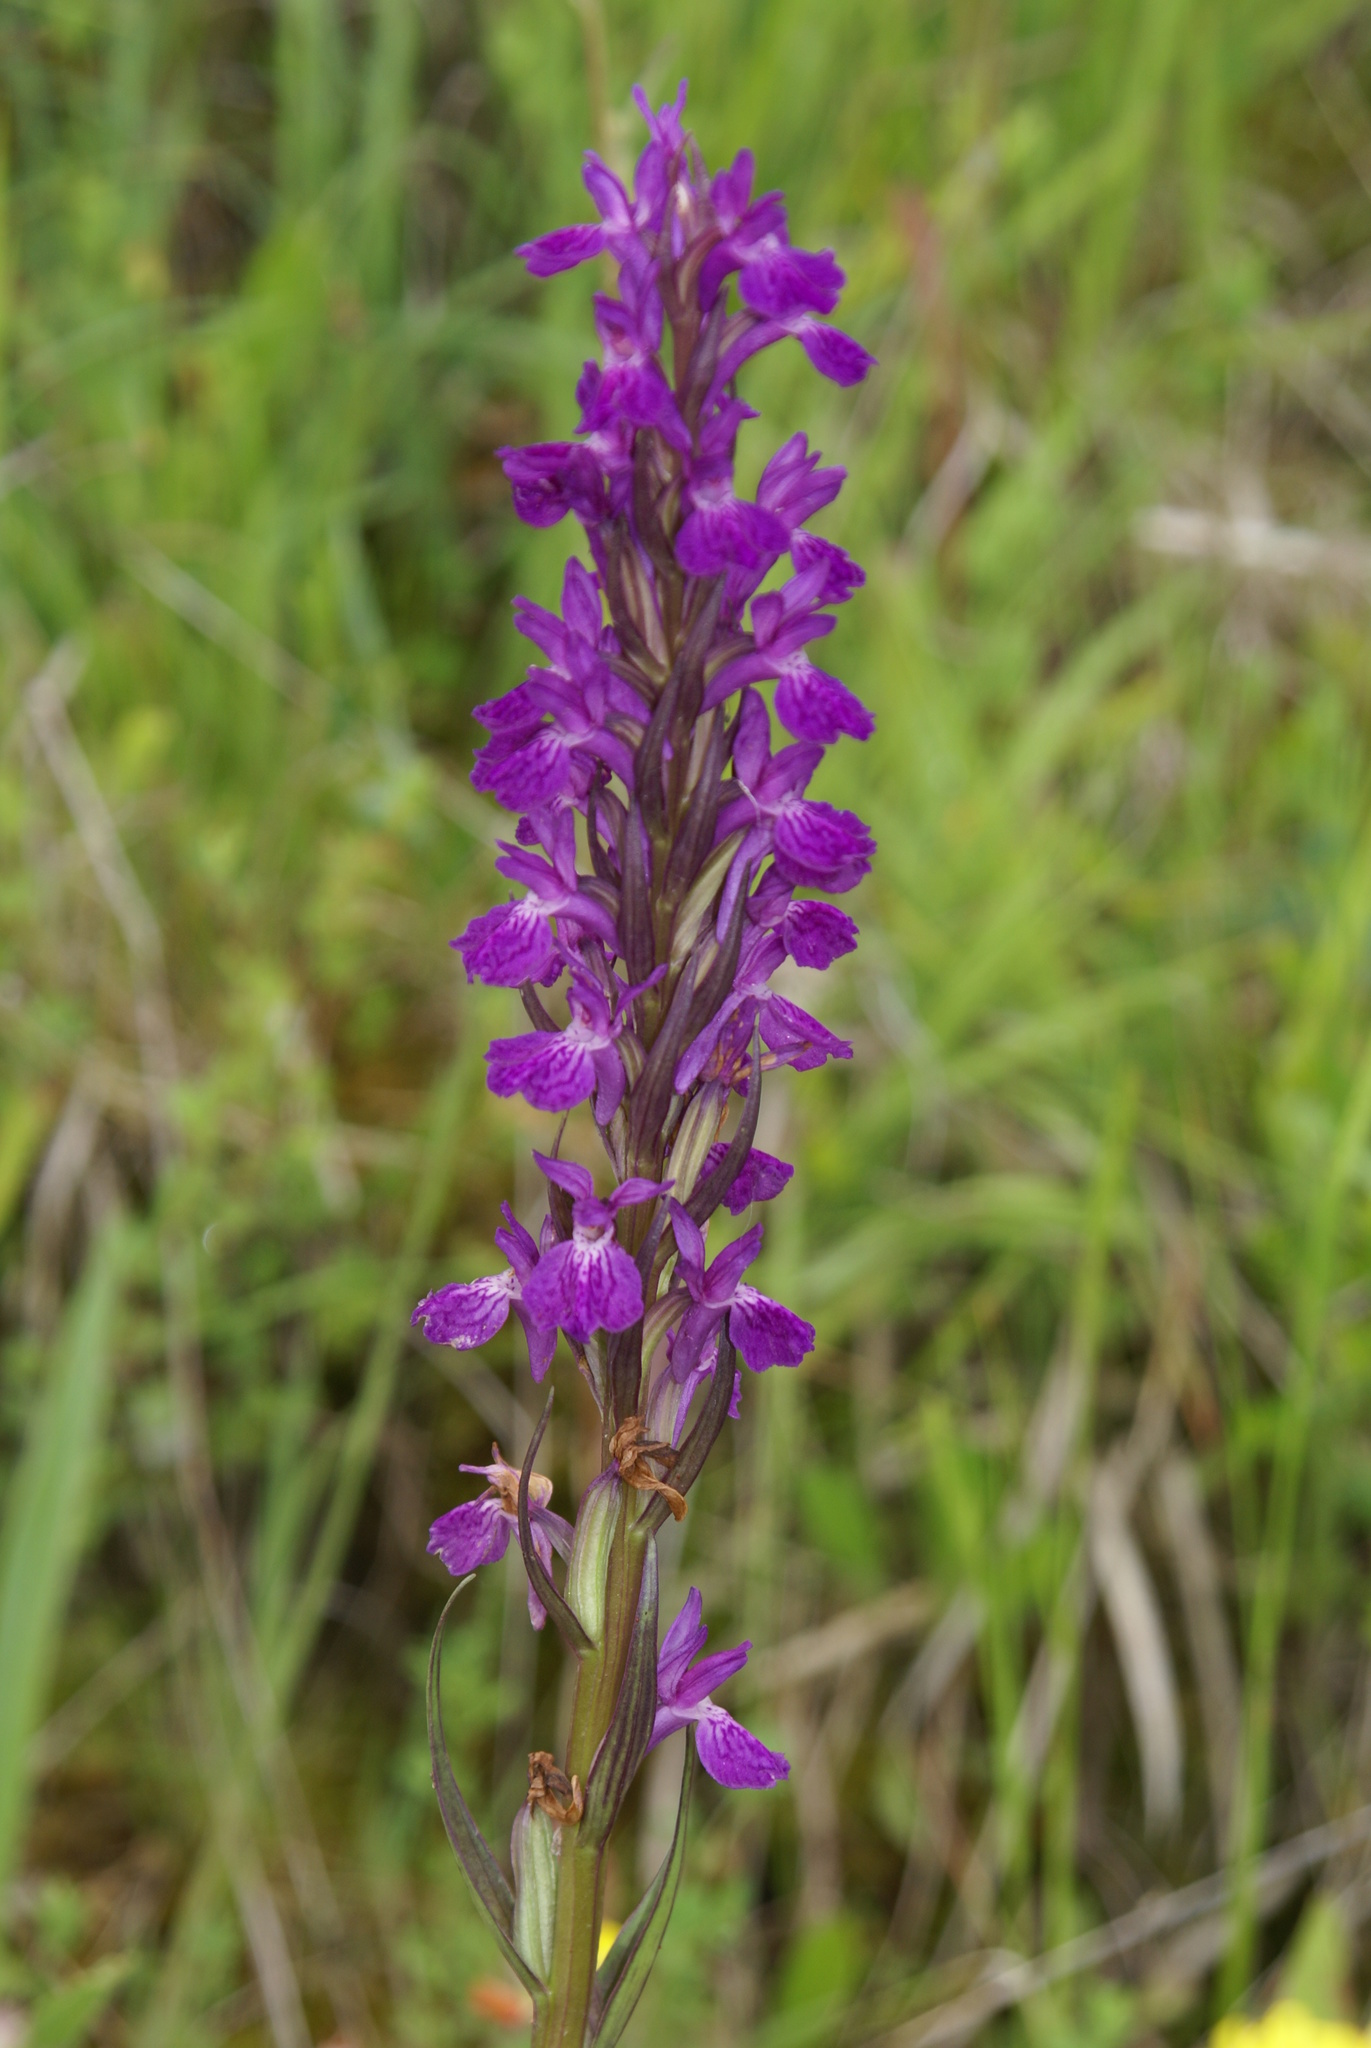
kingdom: Plantae
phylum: Tracheophyta
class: Liliopsida
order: Asparagales
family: Orchidaceae
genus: Dactylorhiza
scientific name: Dactylorhiza elata
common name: Stately dactylorhiza
